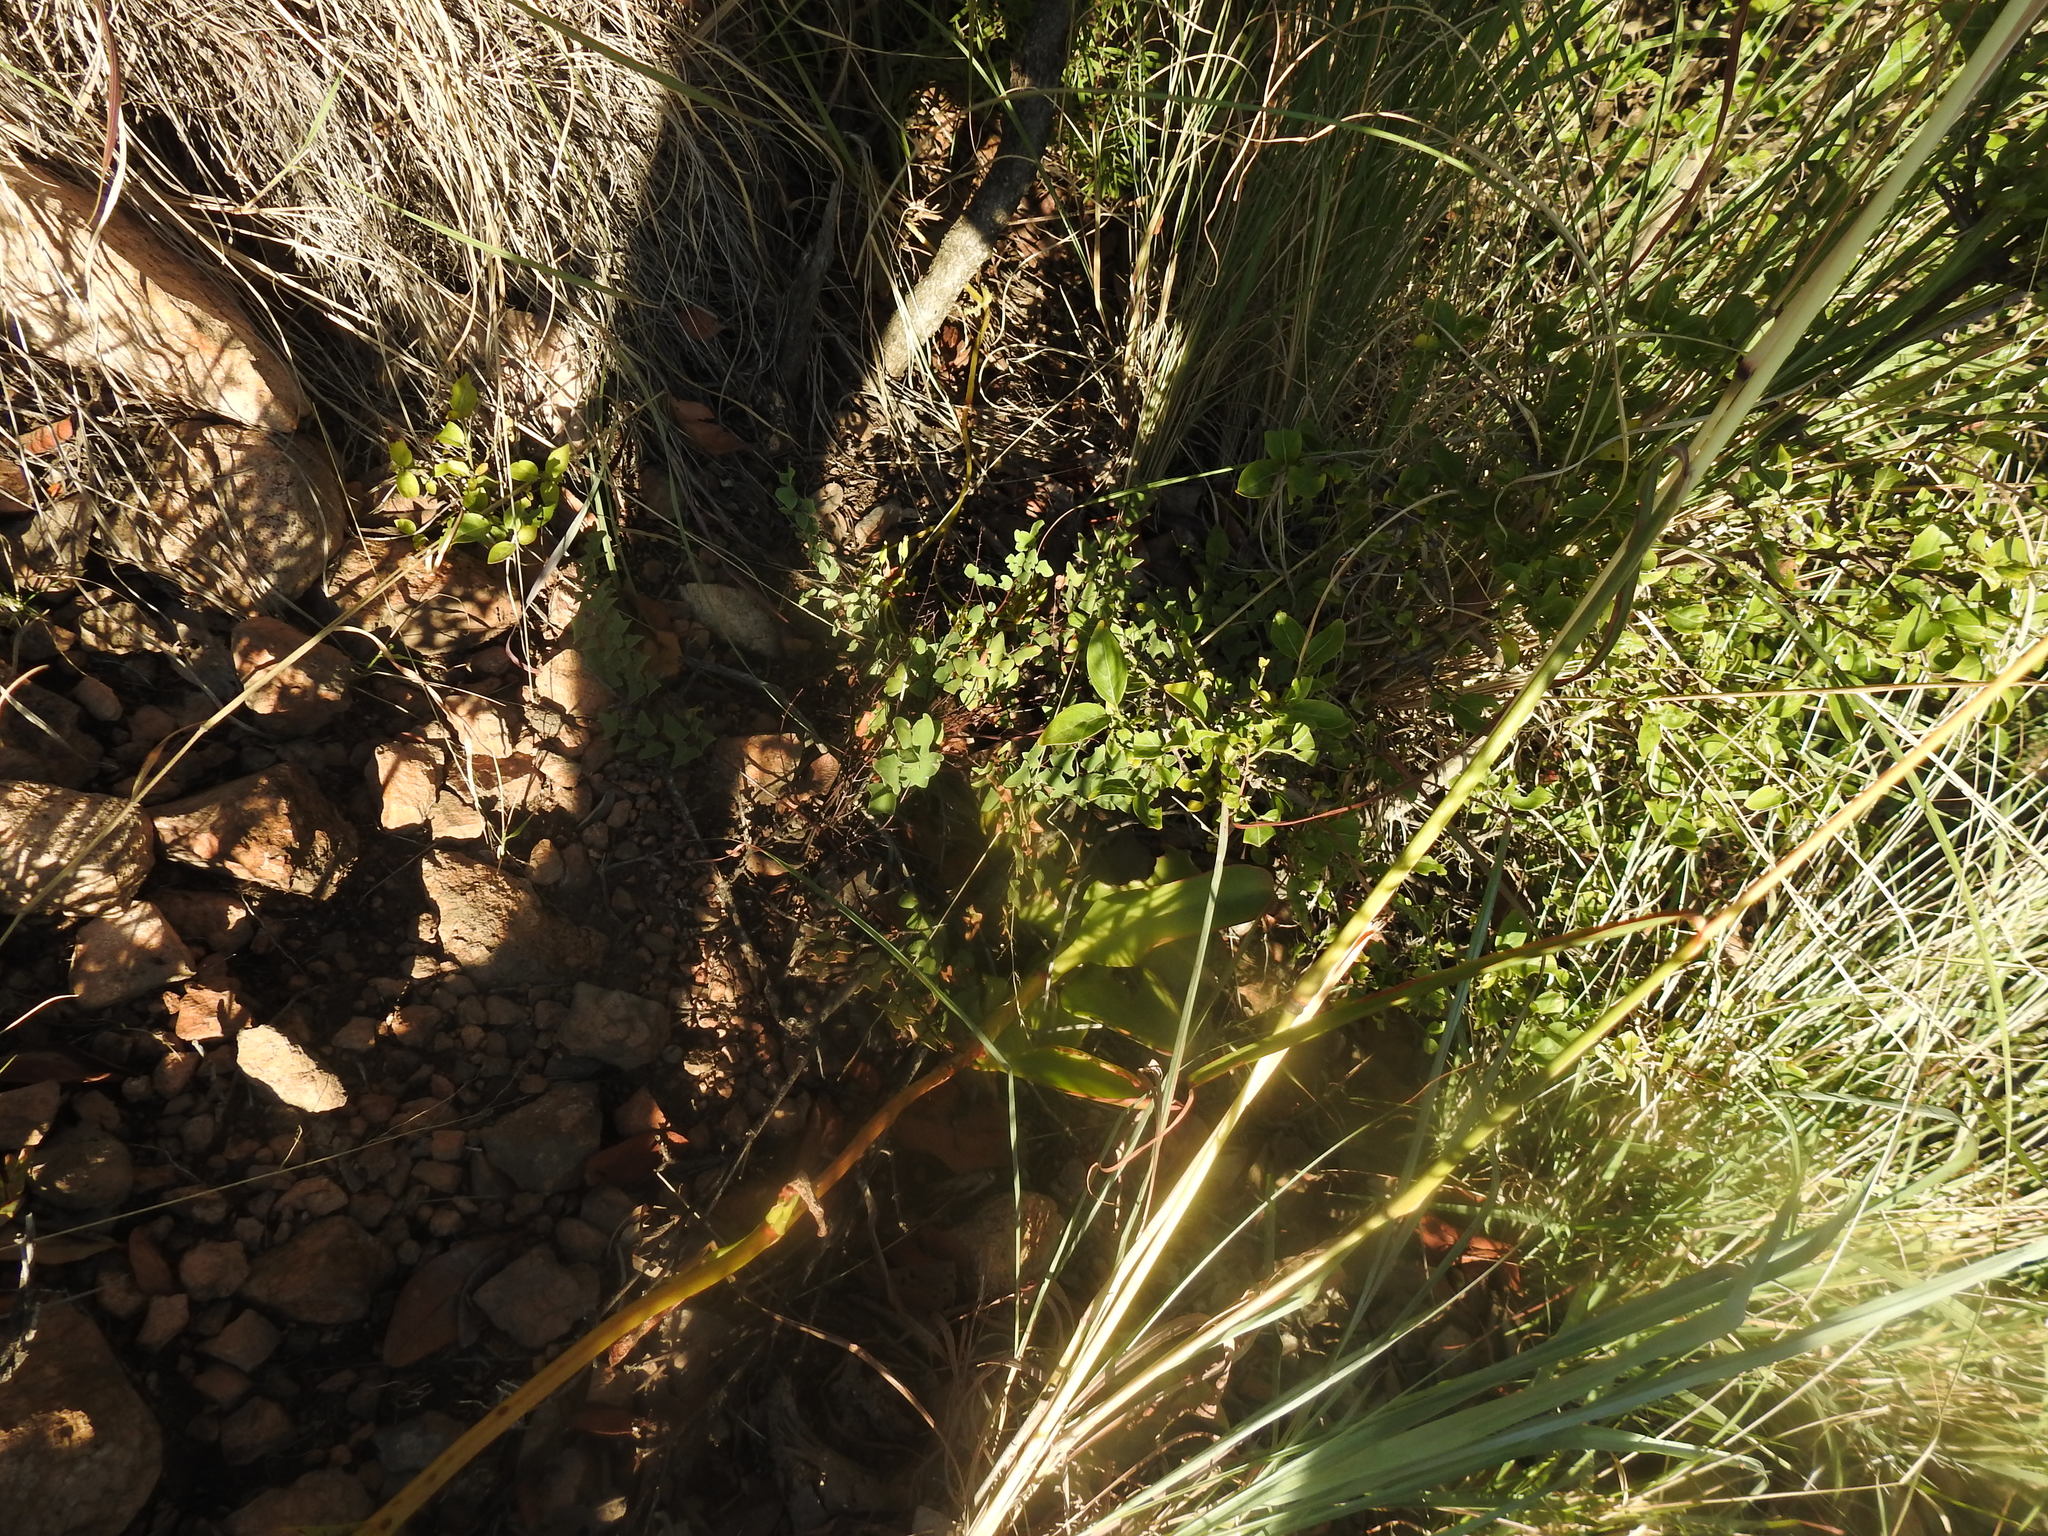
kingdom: Plantae
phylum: Tracheophyta
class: Magnoliopsida
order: Saxifragales
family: Crassulaceae
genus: Kalanchoe
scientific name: Kalanchoe paniculata
